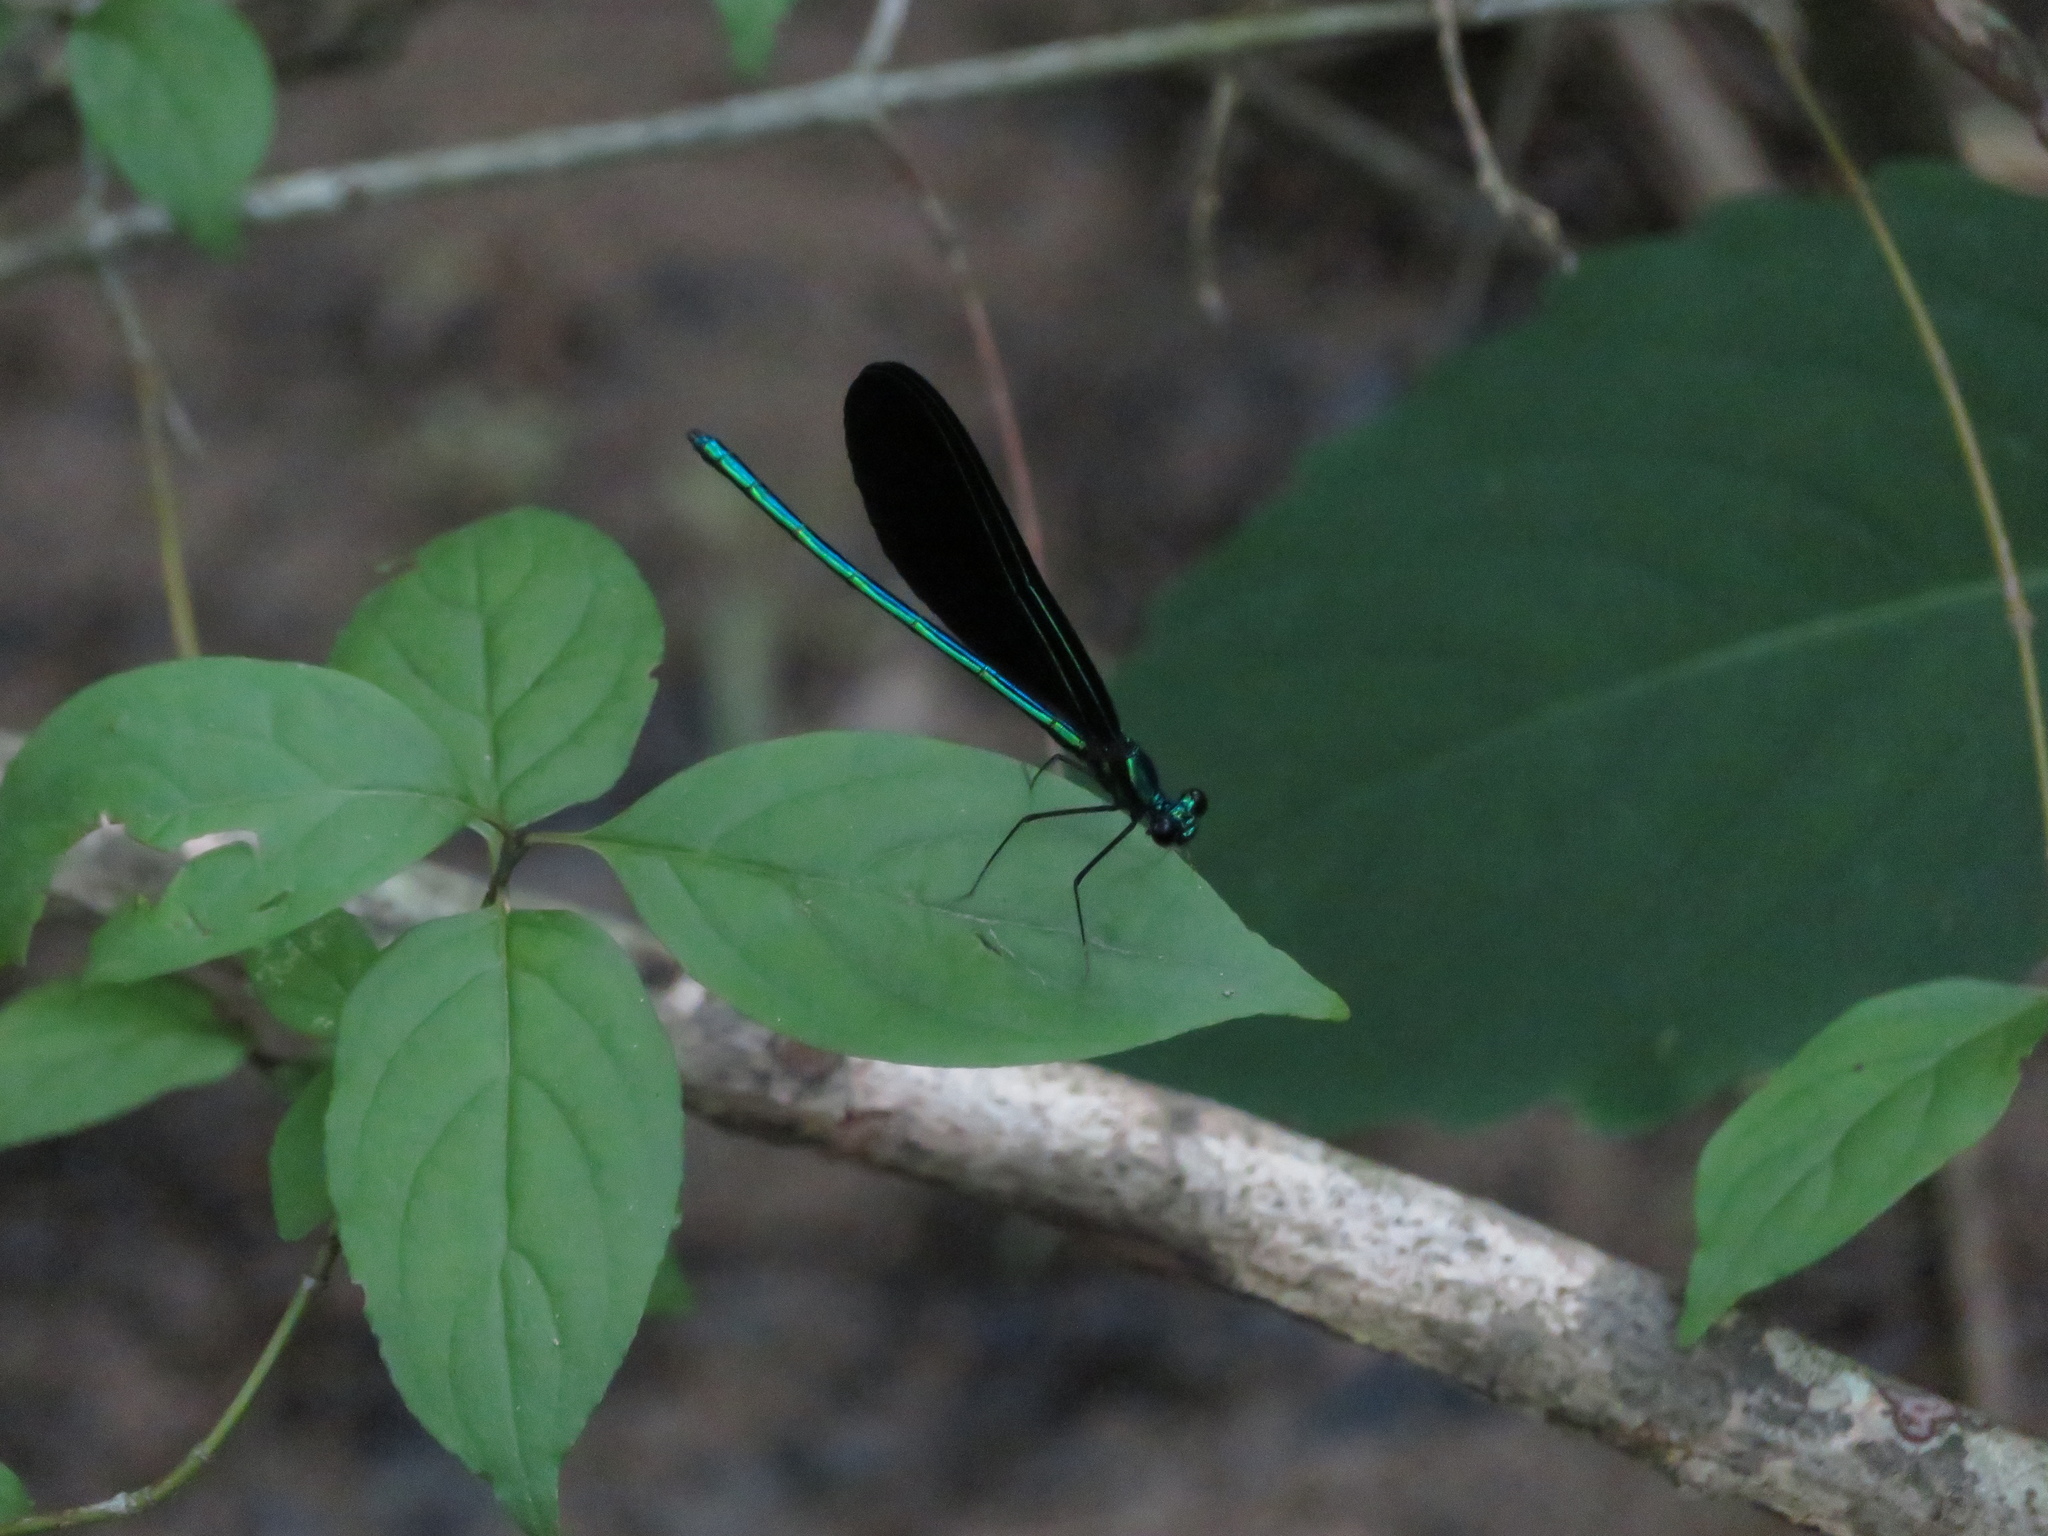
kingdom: Animalia
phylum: Arthropoda
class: Insecta
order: Odonata
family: Calopterygidae
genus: Calopteryx
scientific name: Calopteryx maculata
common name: Ebony jewelwing
